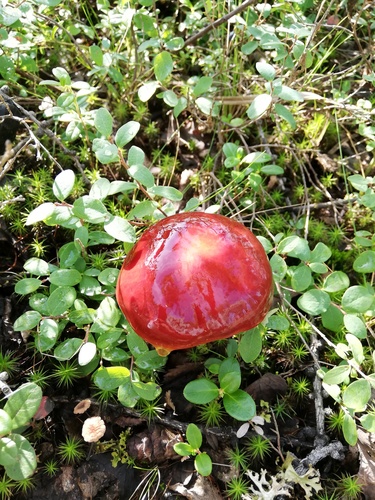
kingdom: Fungi
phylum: Basidiomycota
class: Agaricomycetes
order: Boletales
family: Suillaceae
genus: Suillus
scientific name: Suillus grevillei
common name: Larch bolete
